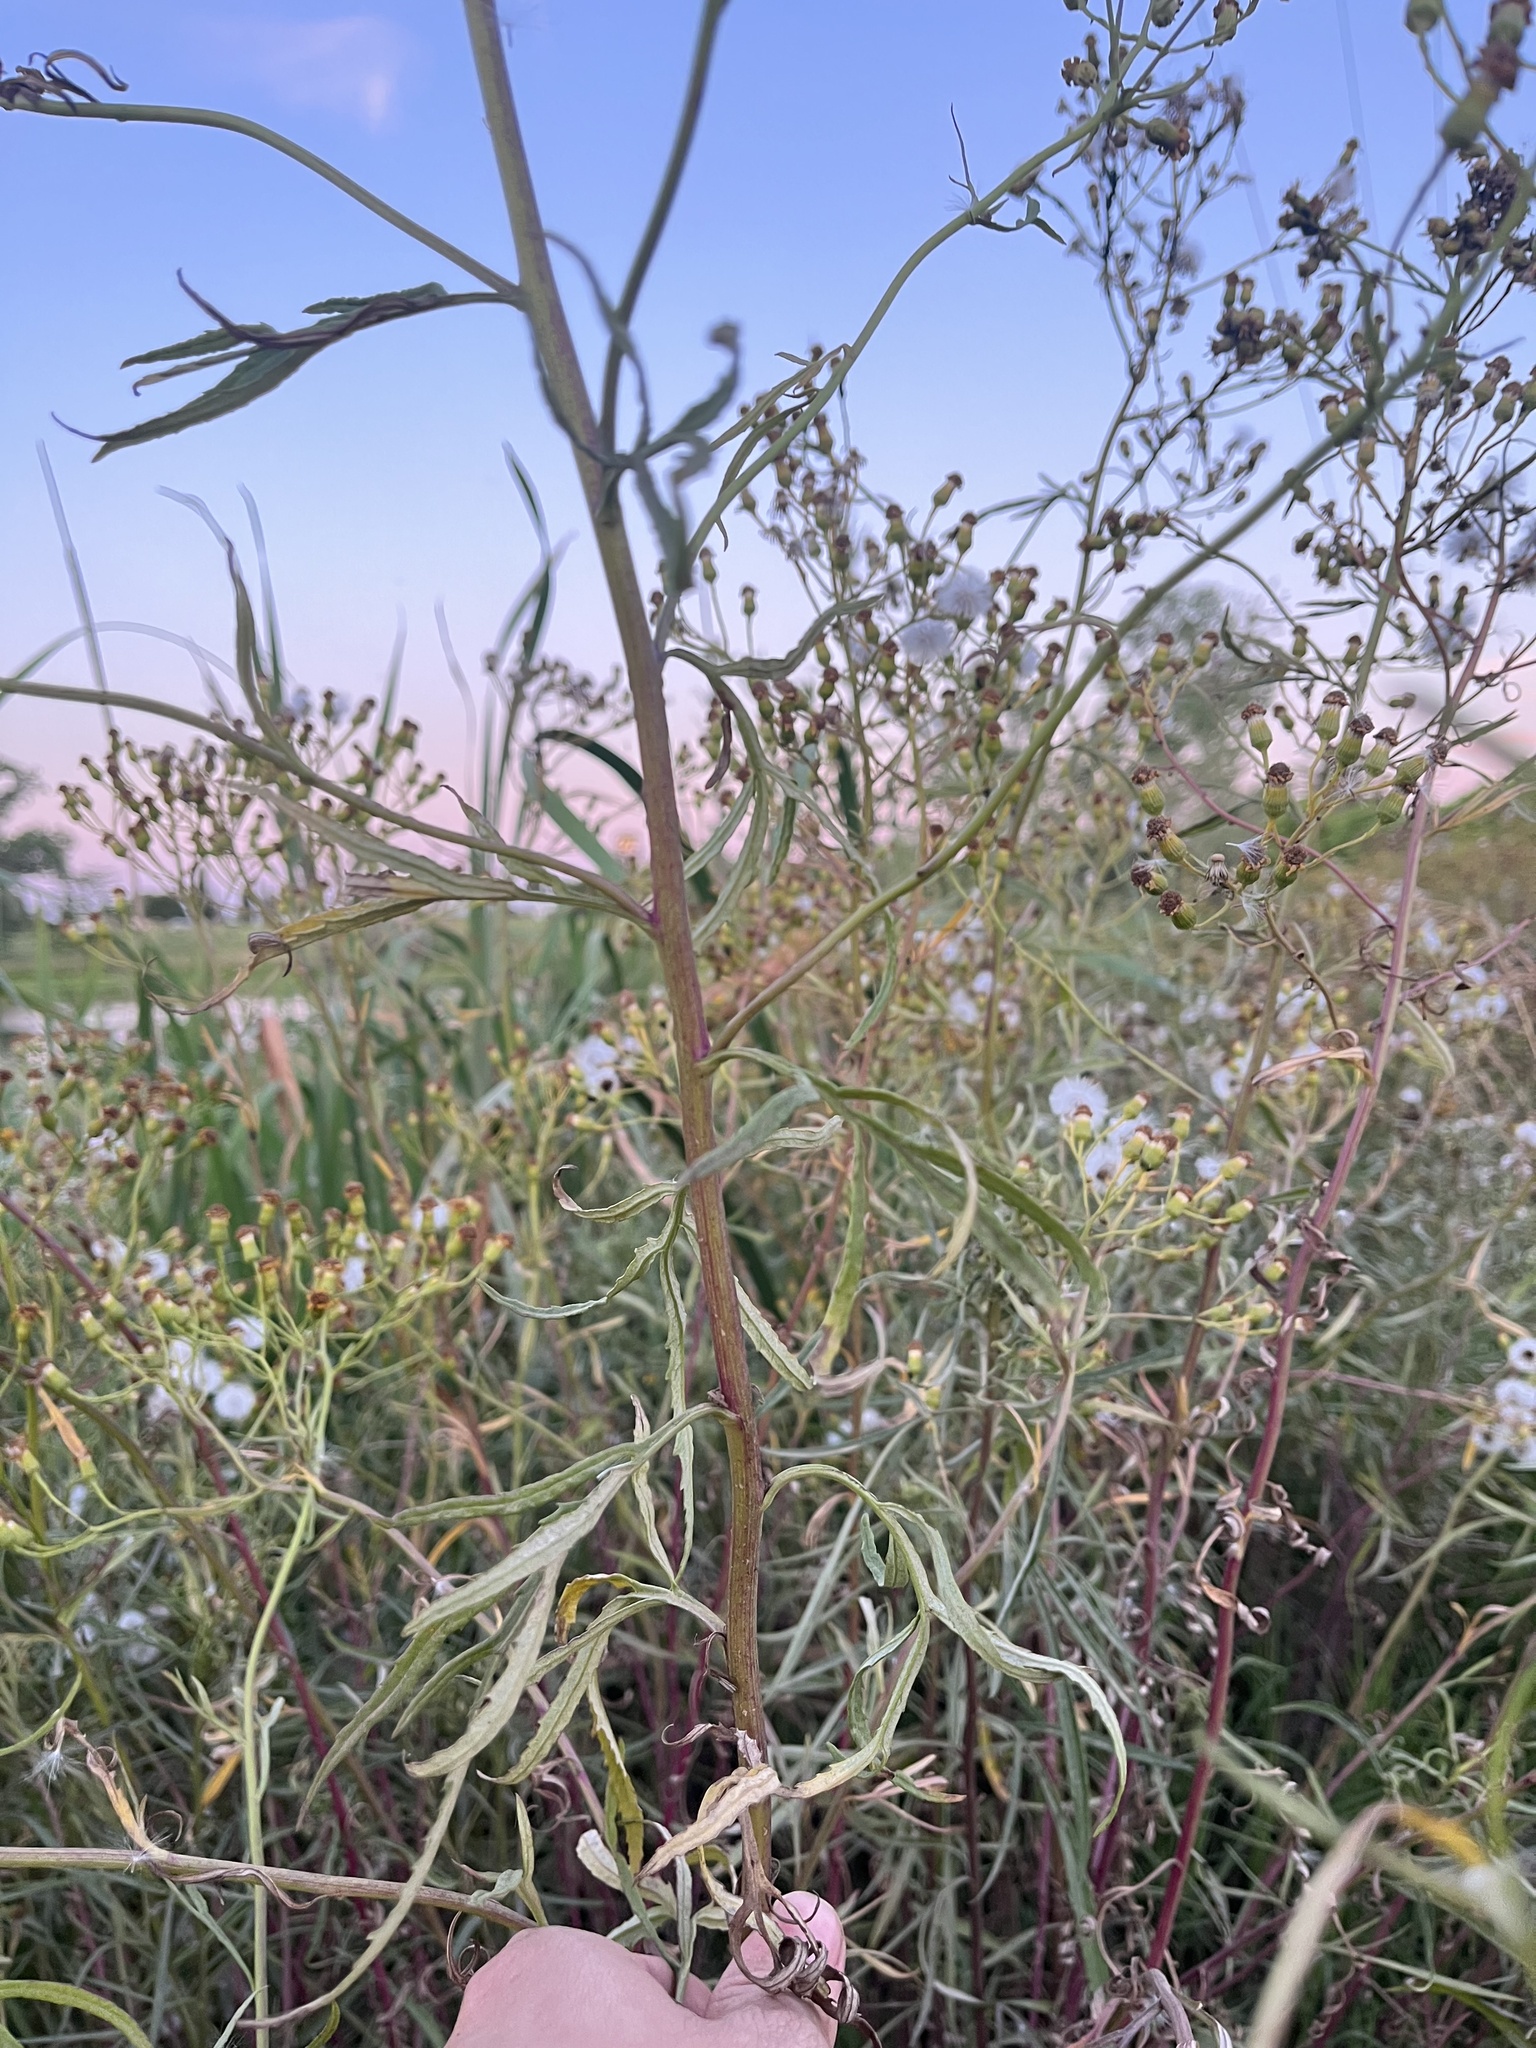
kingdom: Plantae
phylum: Tracheophyta
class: Magnoliopsida
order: Asterales
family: Asteraceae
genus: Senecio
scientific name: Senecio brasiliensis
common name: Hemp-leaf ragwort
